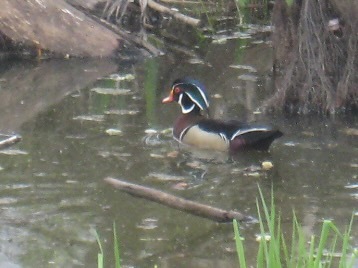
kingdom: Animalia
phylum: Chordata
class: Aves
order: Anseriformes
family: Anatidae
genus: Aix
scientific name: Aix sponsa
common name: Wood duck
